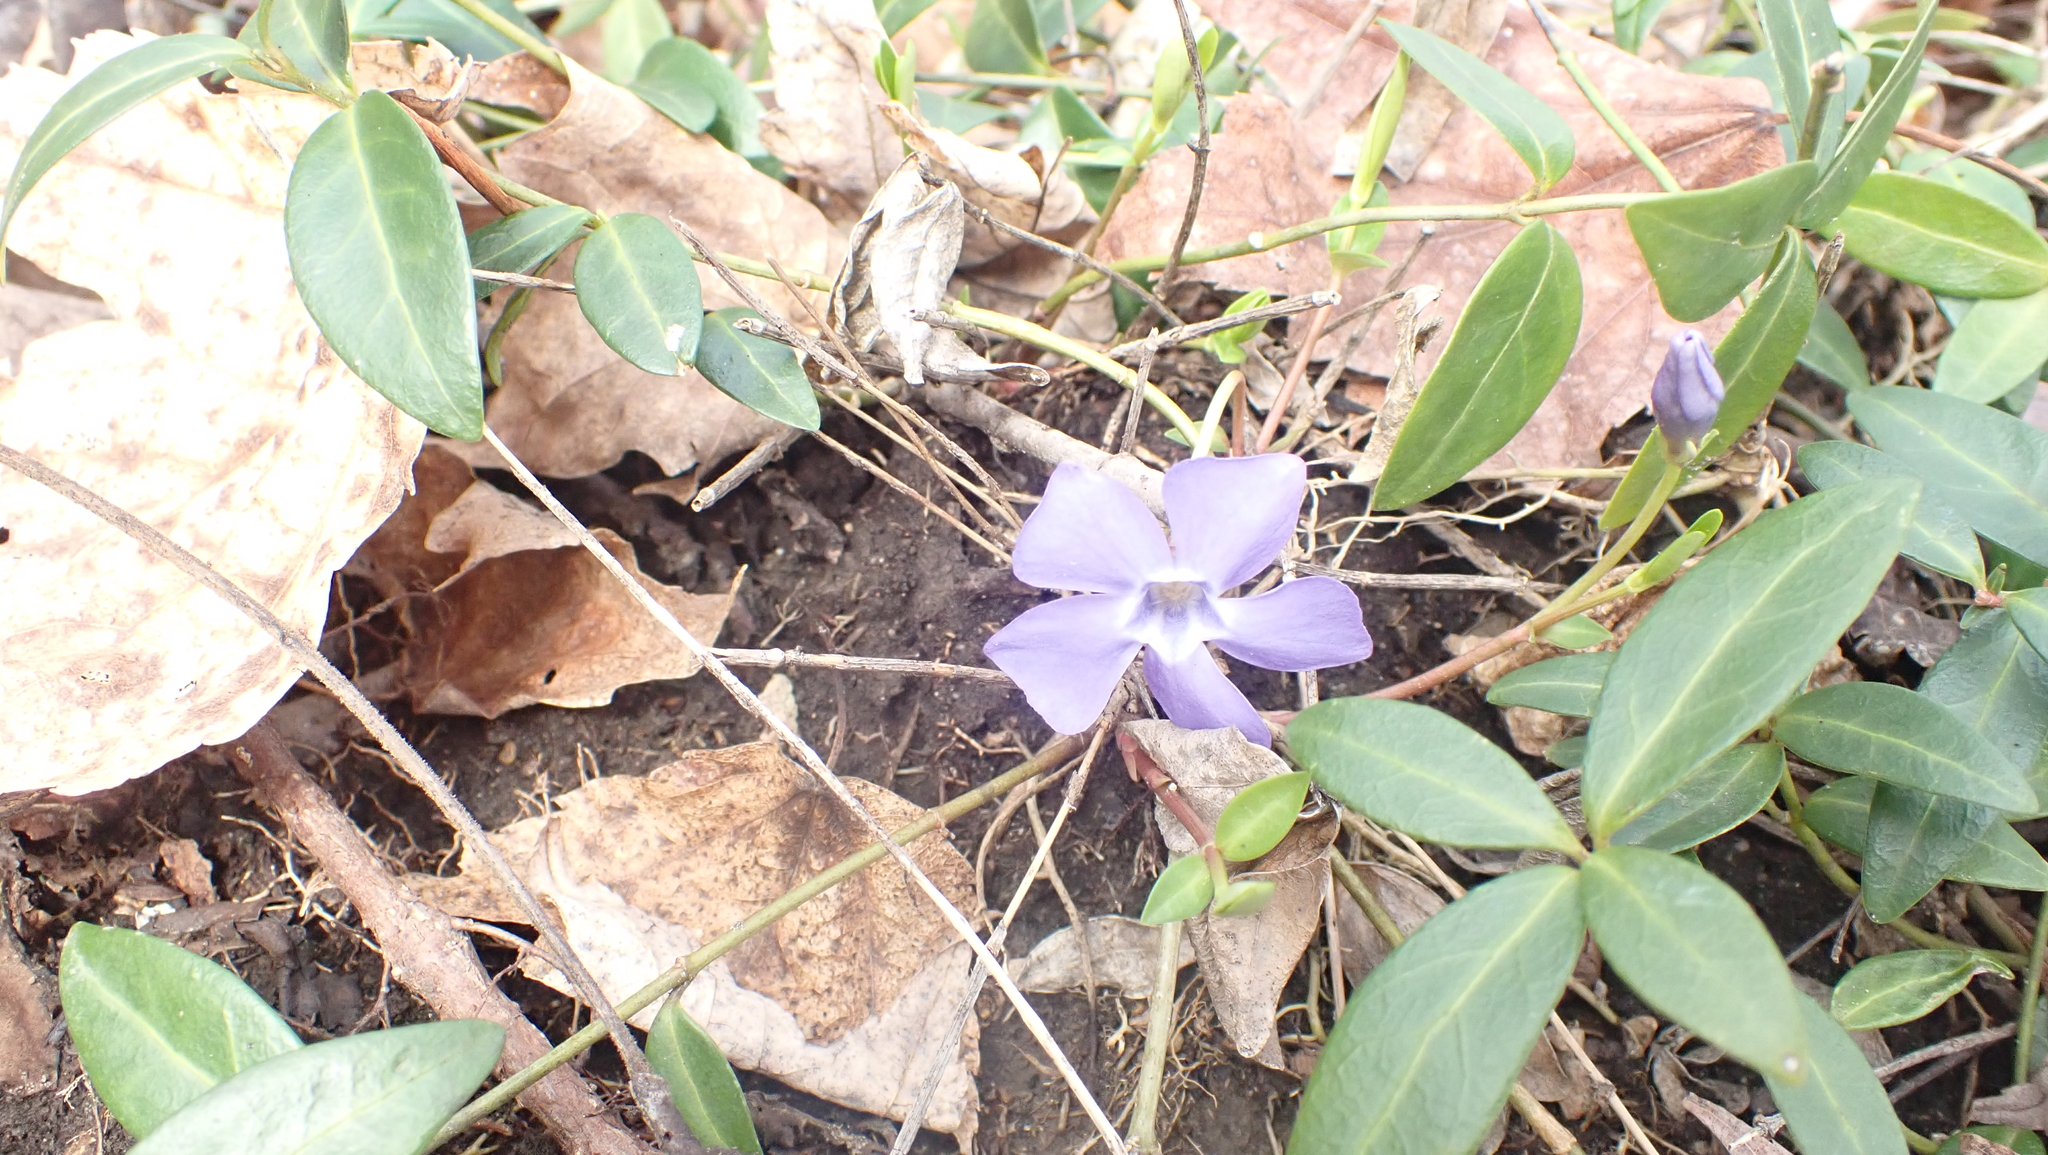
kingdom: Plantae
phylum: Tracheophyta
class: Magnoliopsida
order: Gentianales
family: Apocynaceae
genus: Vinca
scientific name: Vinca minor
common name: Lesser periwinkle
